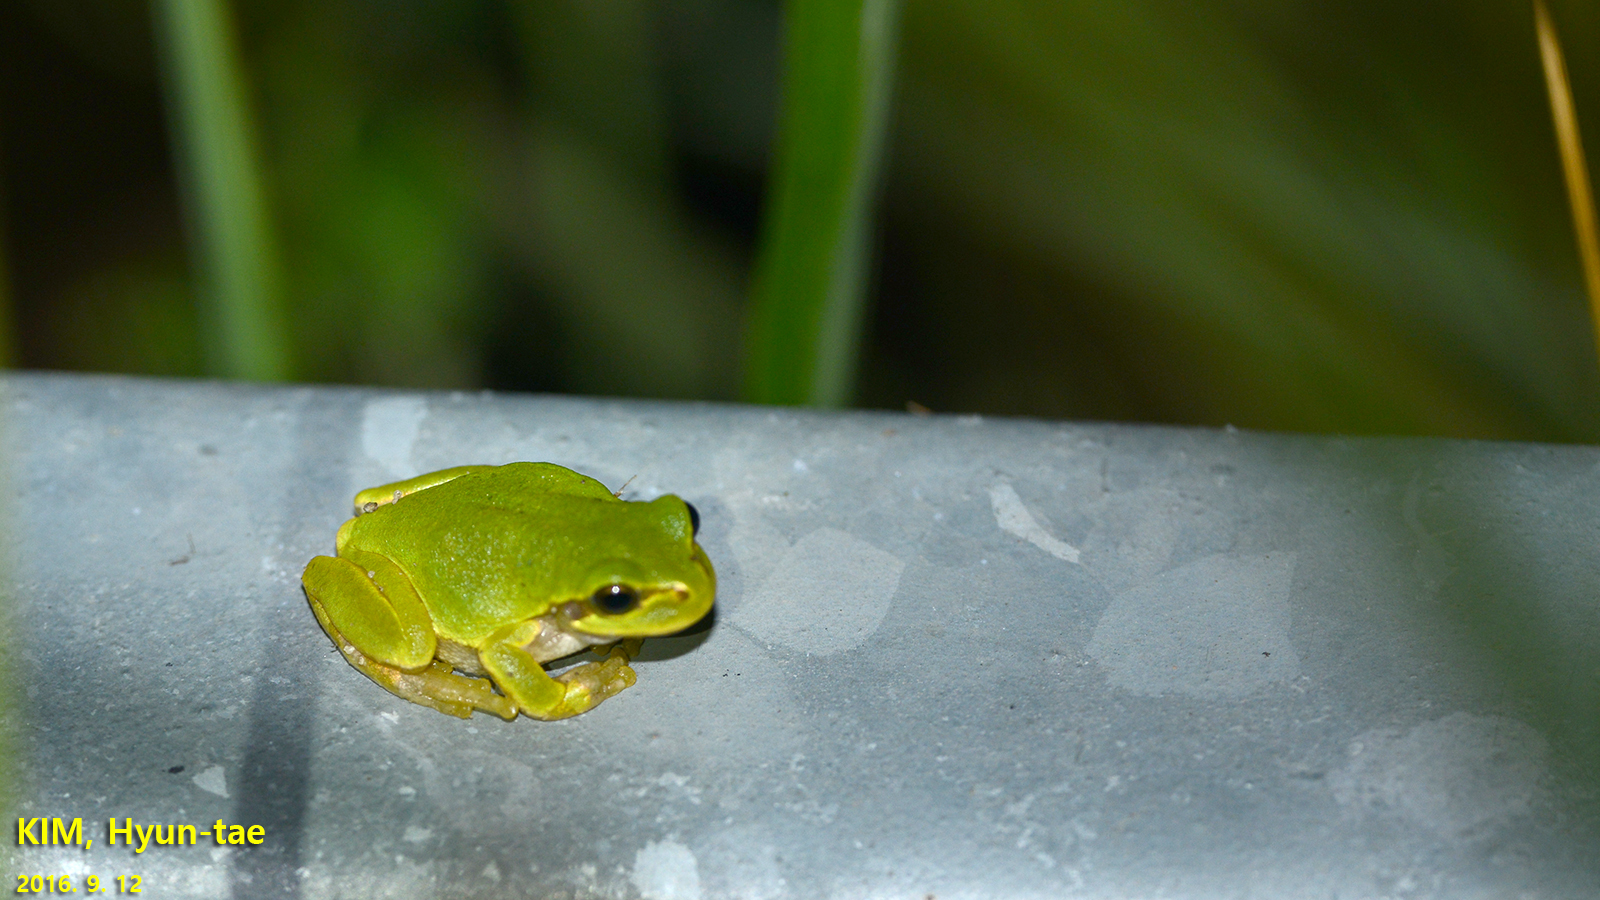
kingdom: Animalia
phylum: Chordata
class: Amphibia
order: Anura
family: Hylidae
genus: Dryophytes
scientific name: Dryophytes japonicus
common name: Japanese treefrog
